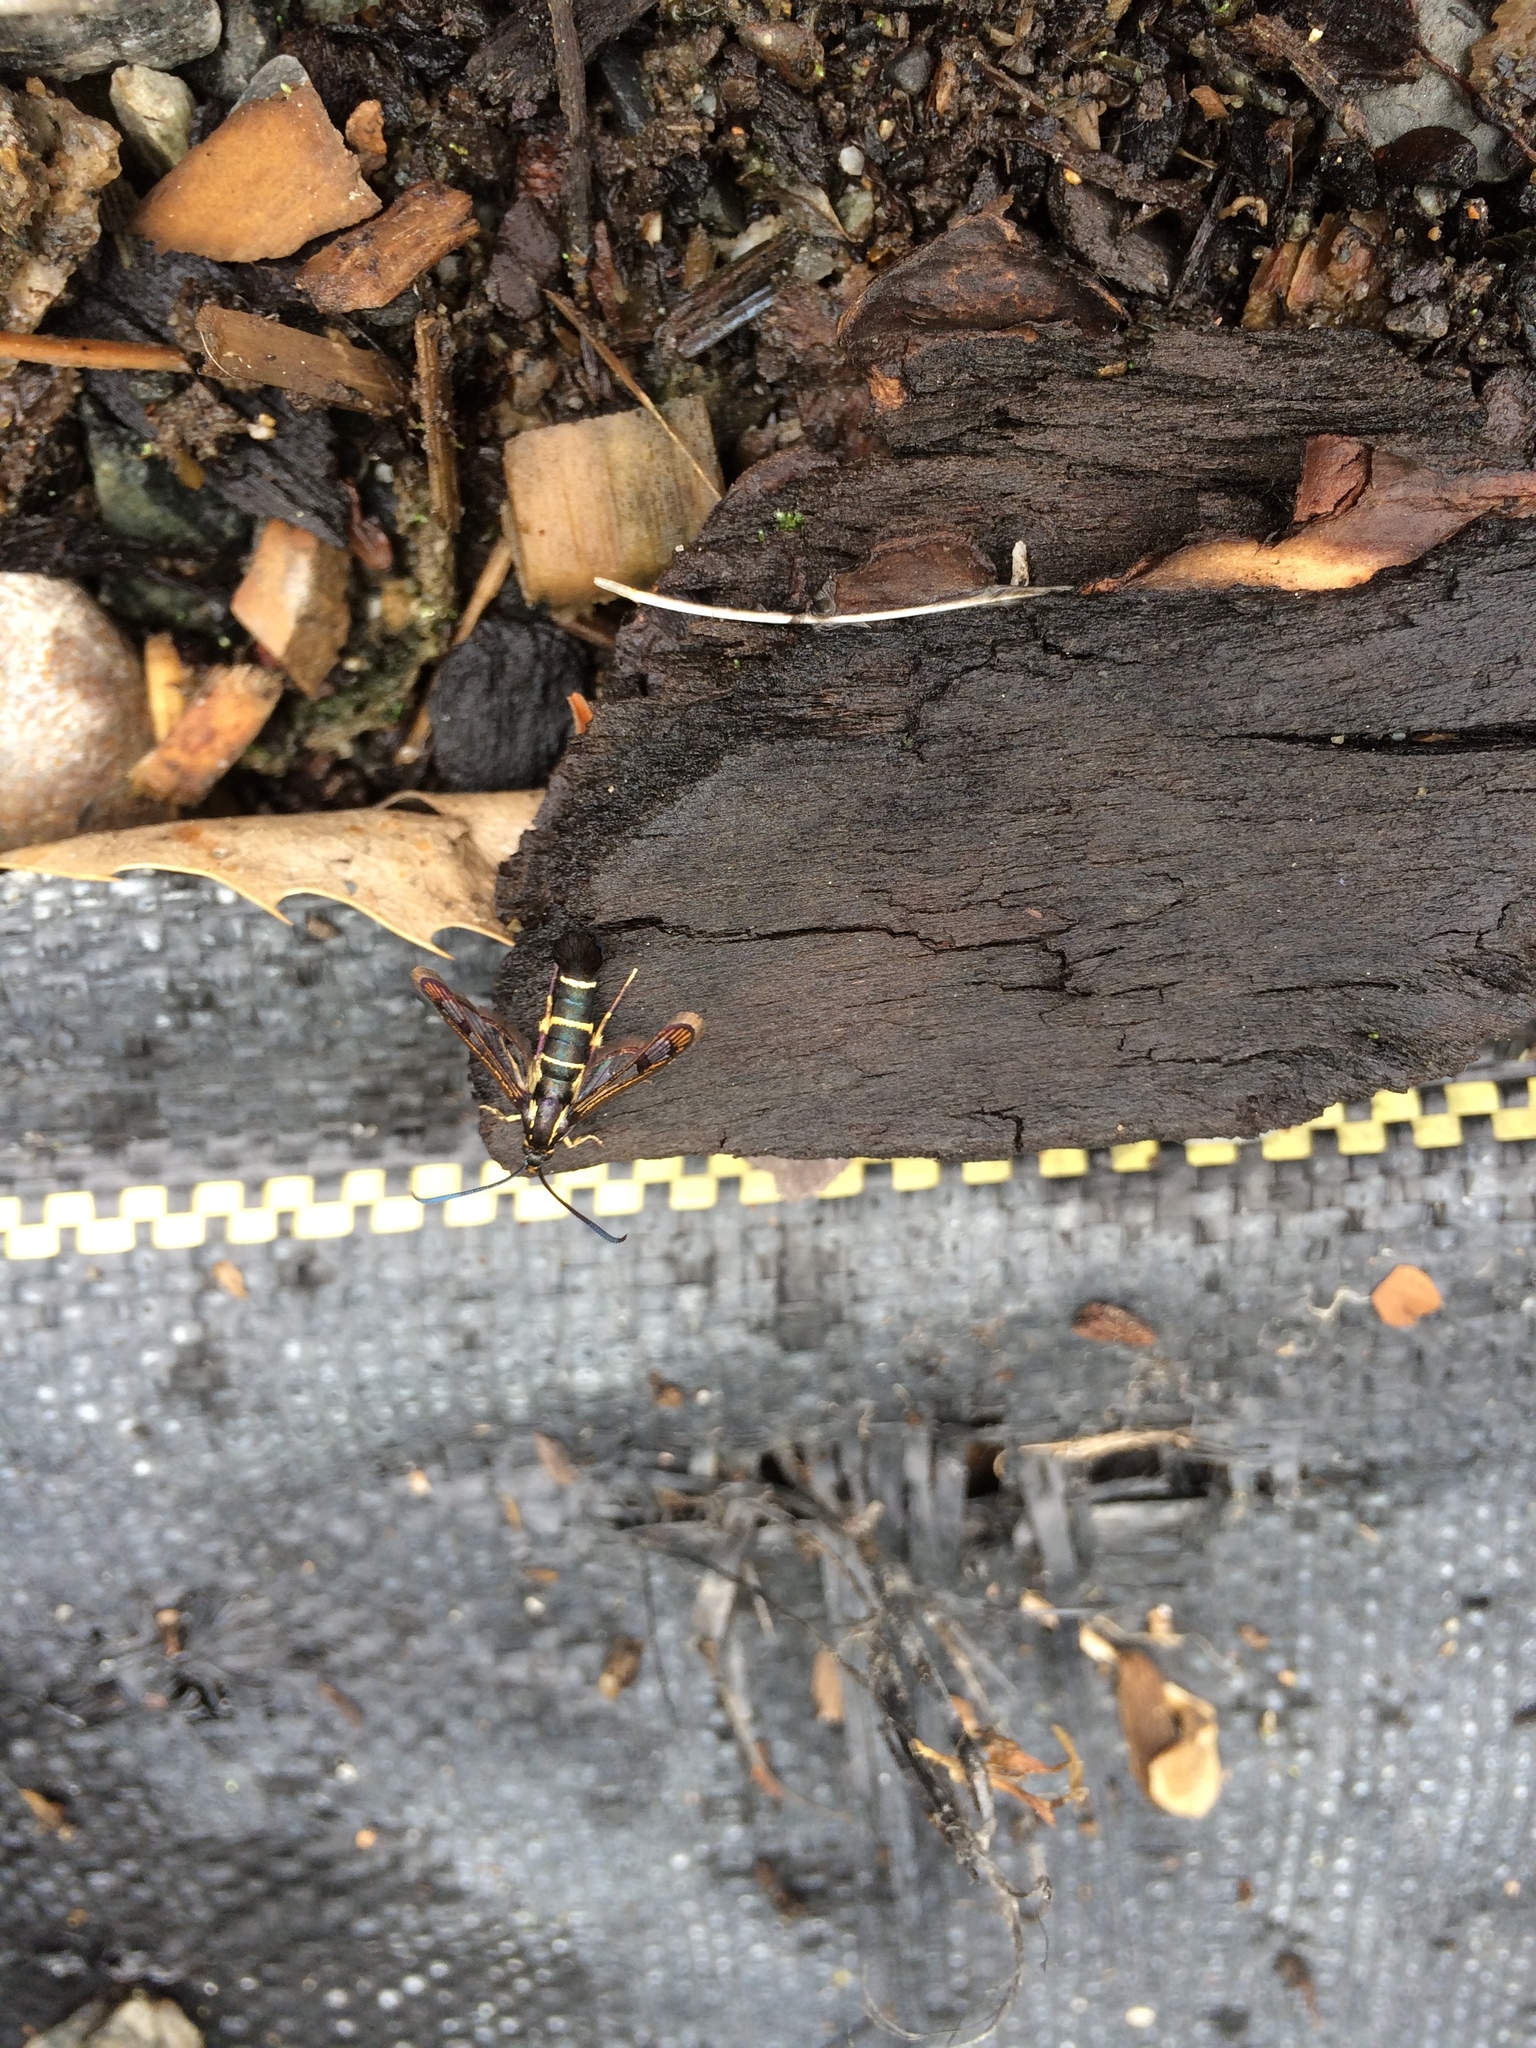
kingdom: Animalia
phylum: Arthropoda
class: Insecta
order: Lepidoptera
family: Sesiidae
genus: Synanthedon
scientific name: Synanthedon tipuliformis
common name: Currant clearwing
